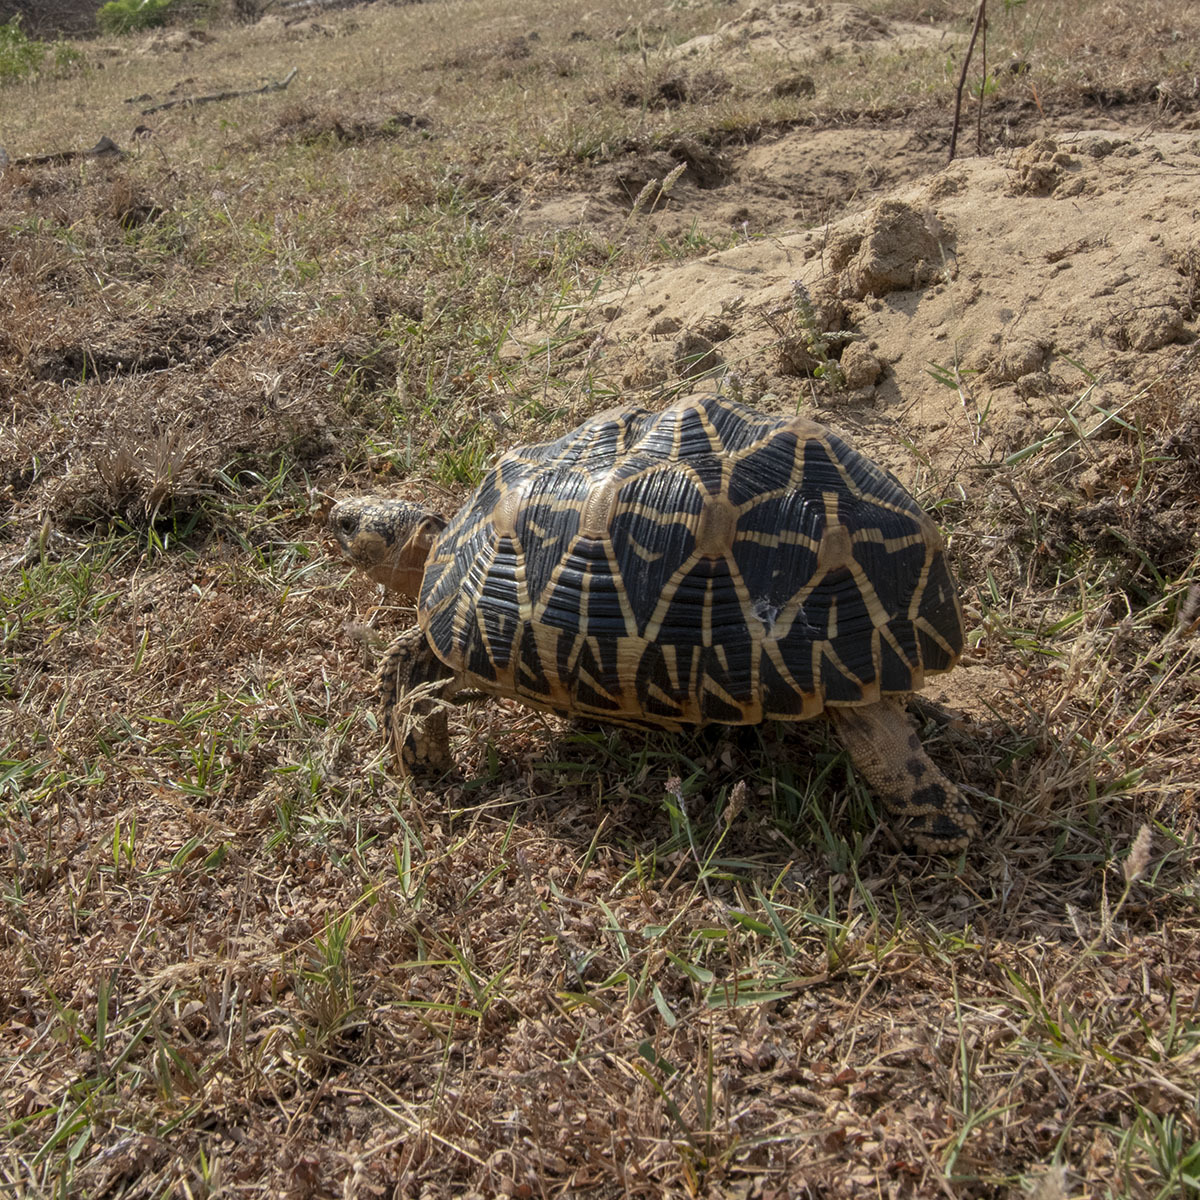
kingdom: Animalia
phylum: Chordata
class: Testudines
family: Testudinidae
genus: Geochelone
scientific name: Geochelone elegans
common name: Indian star tortoise
